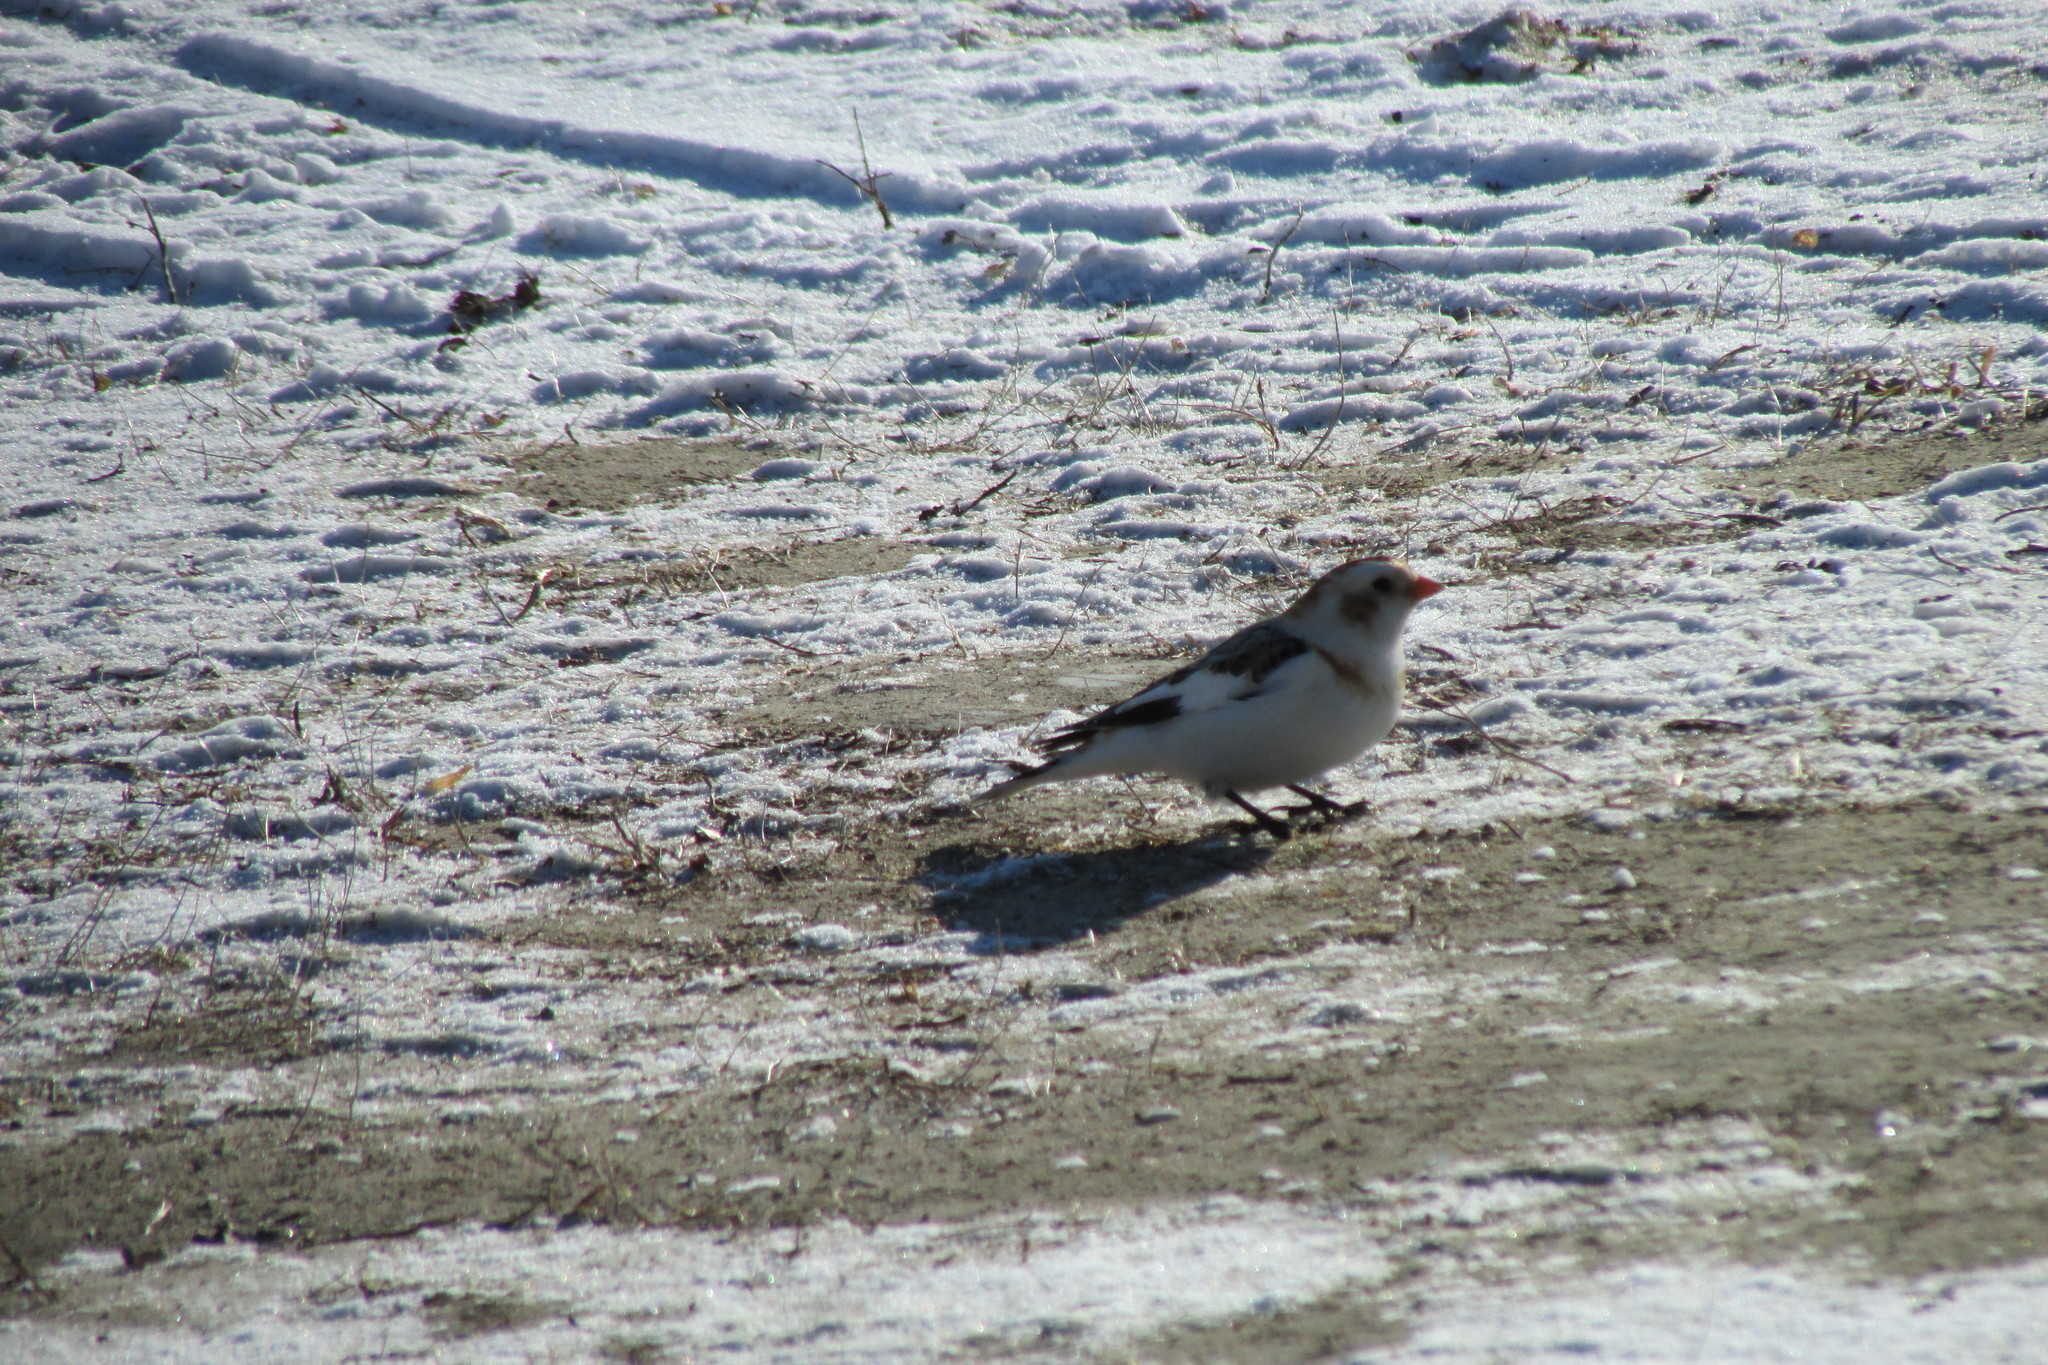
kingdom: Animalia
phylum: Chordata
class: Aves
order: Passeriformes
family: Calcariidae
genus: Plectrophenax
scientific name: Plectrophenax nivalis
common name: Snow bunting
